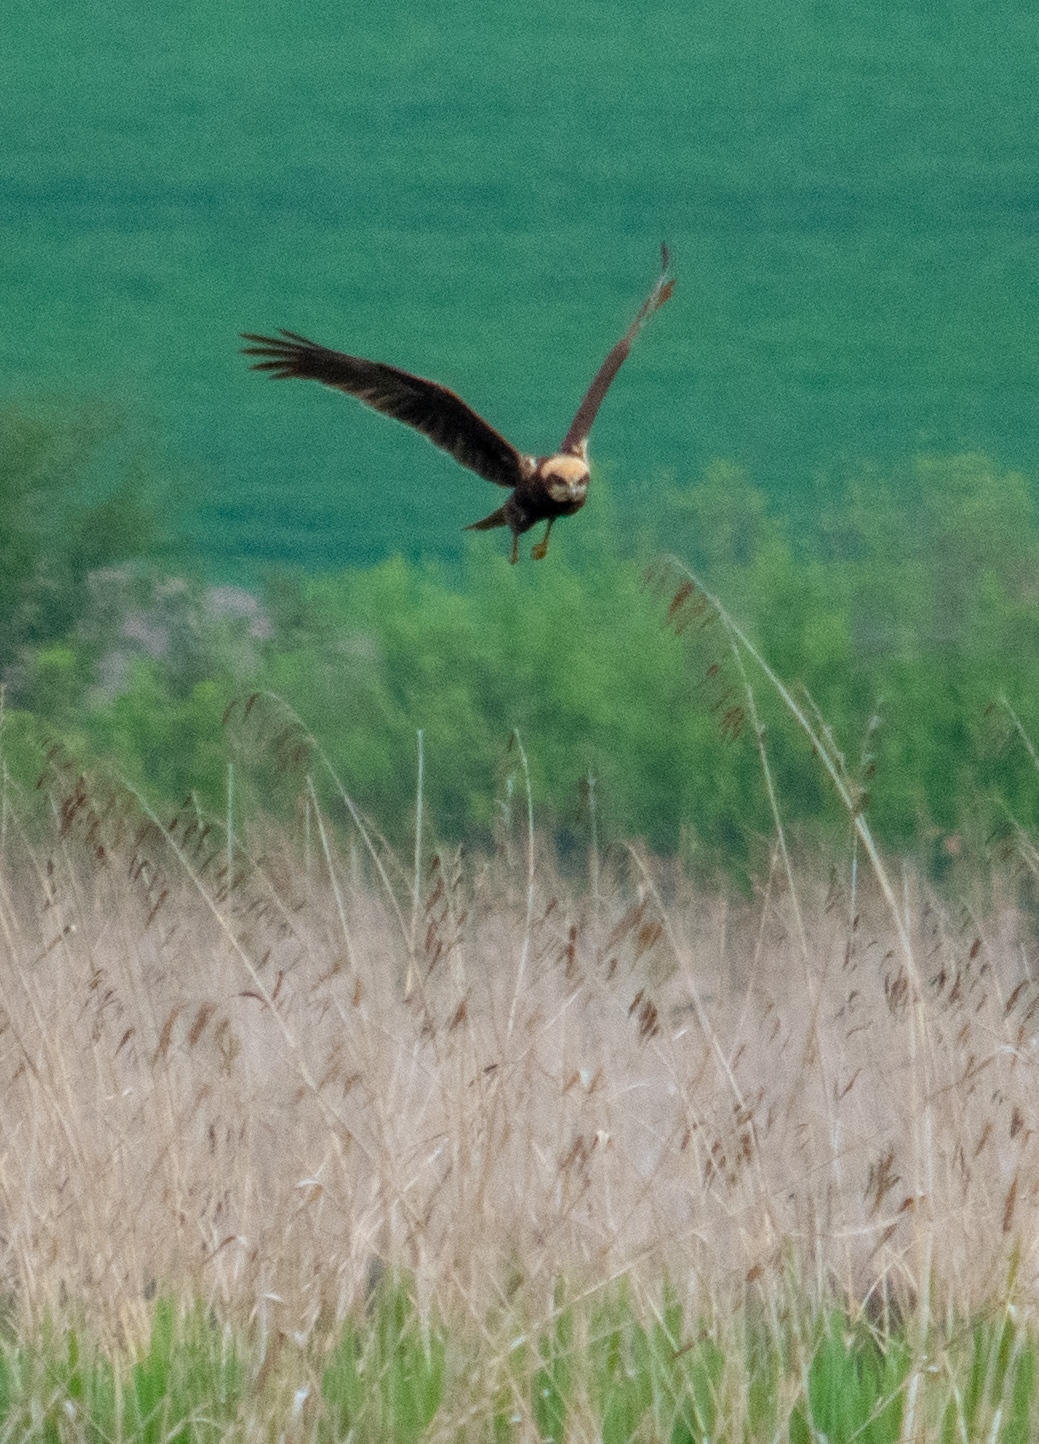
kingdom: Animalia
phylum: Chordata
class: Aves
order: Accipitriformes
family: Accipitridae
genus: Circus
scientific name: Circus aeruginosus
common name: Western marsh harrier
